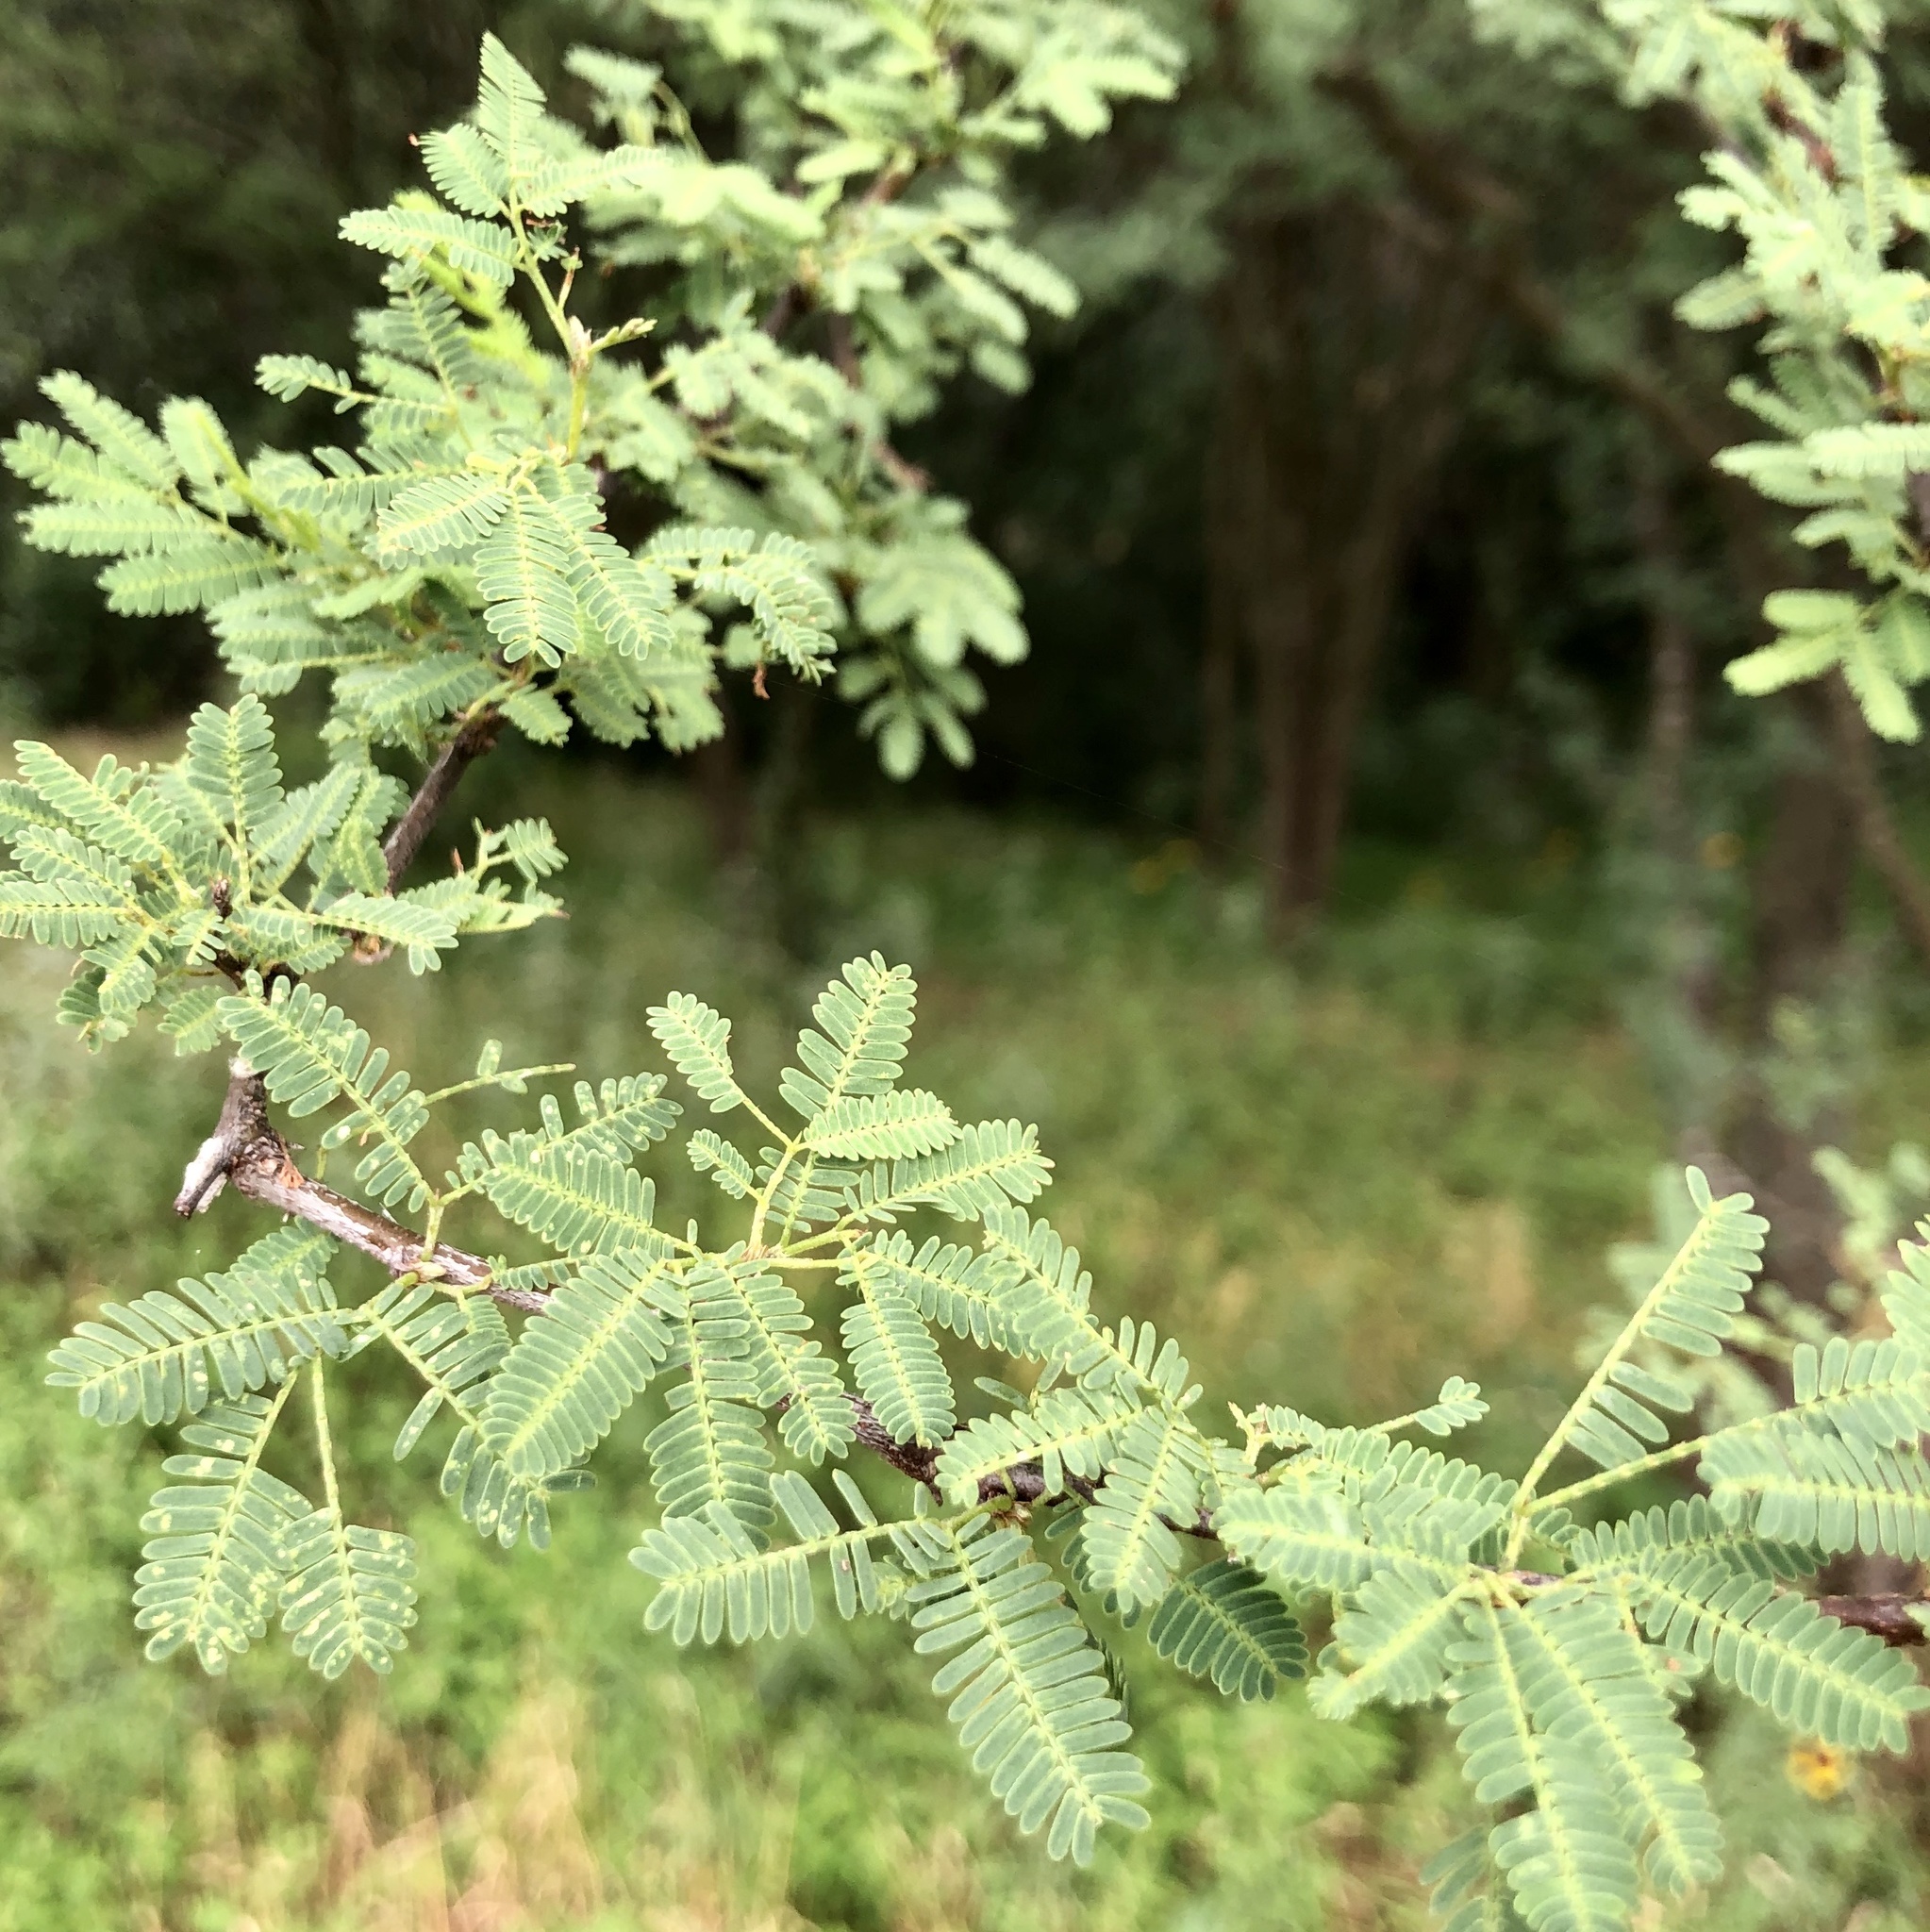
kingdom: Plantae
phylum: Tracheophyta
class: Magnoliopsida
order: Fabales
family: Fabaceae
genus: Vachellia
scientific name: Vachellia farnesiana
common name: Sweet acacia
